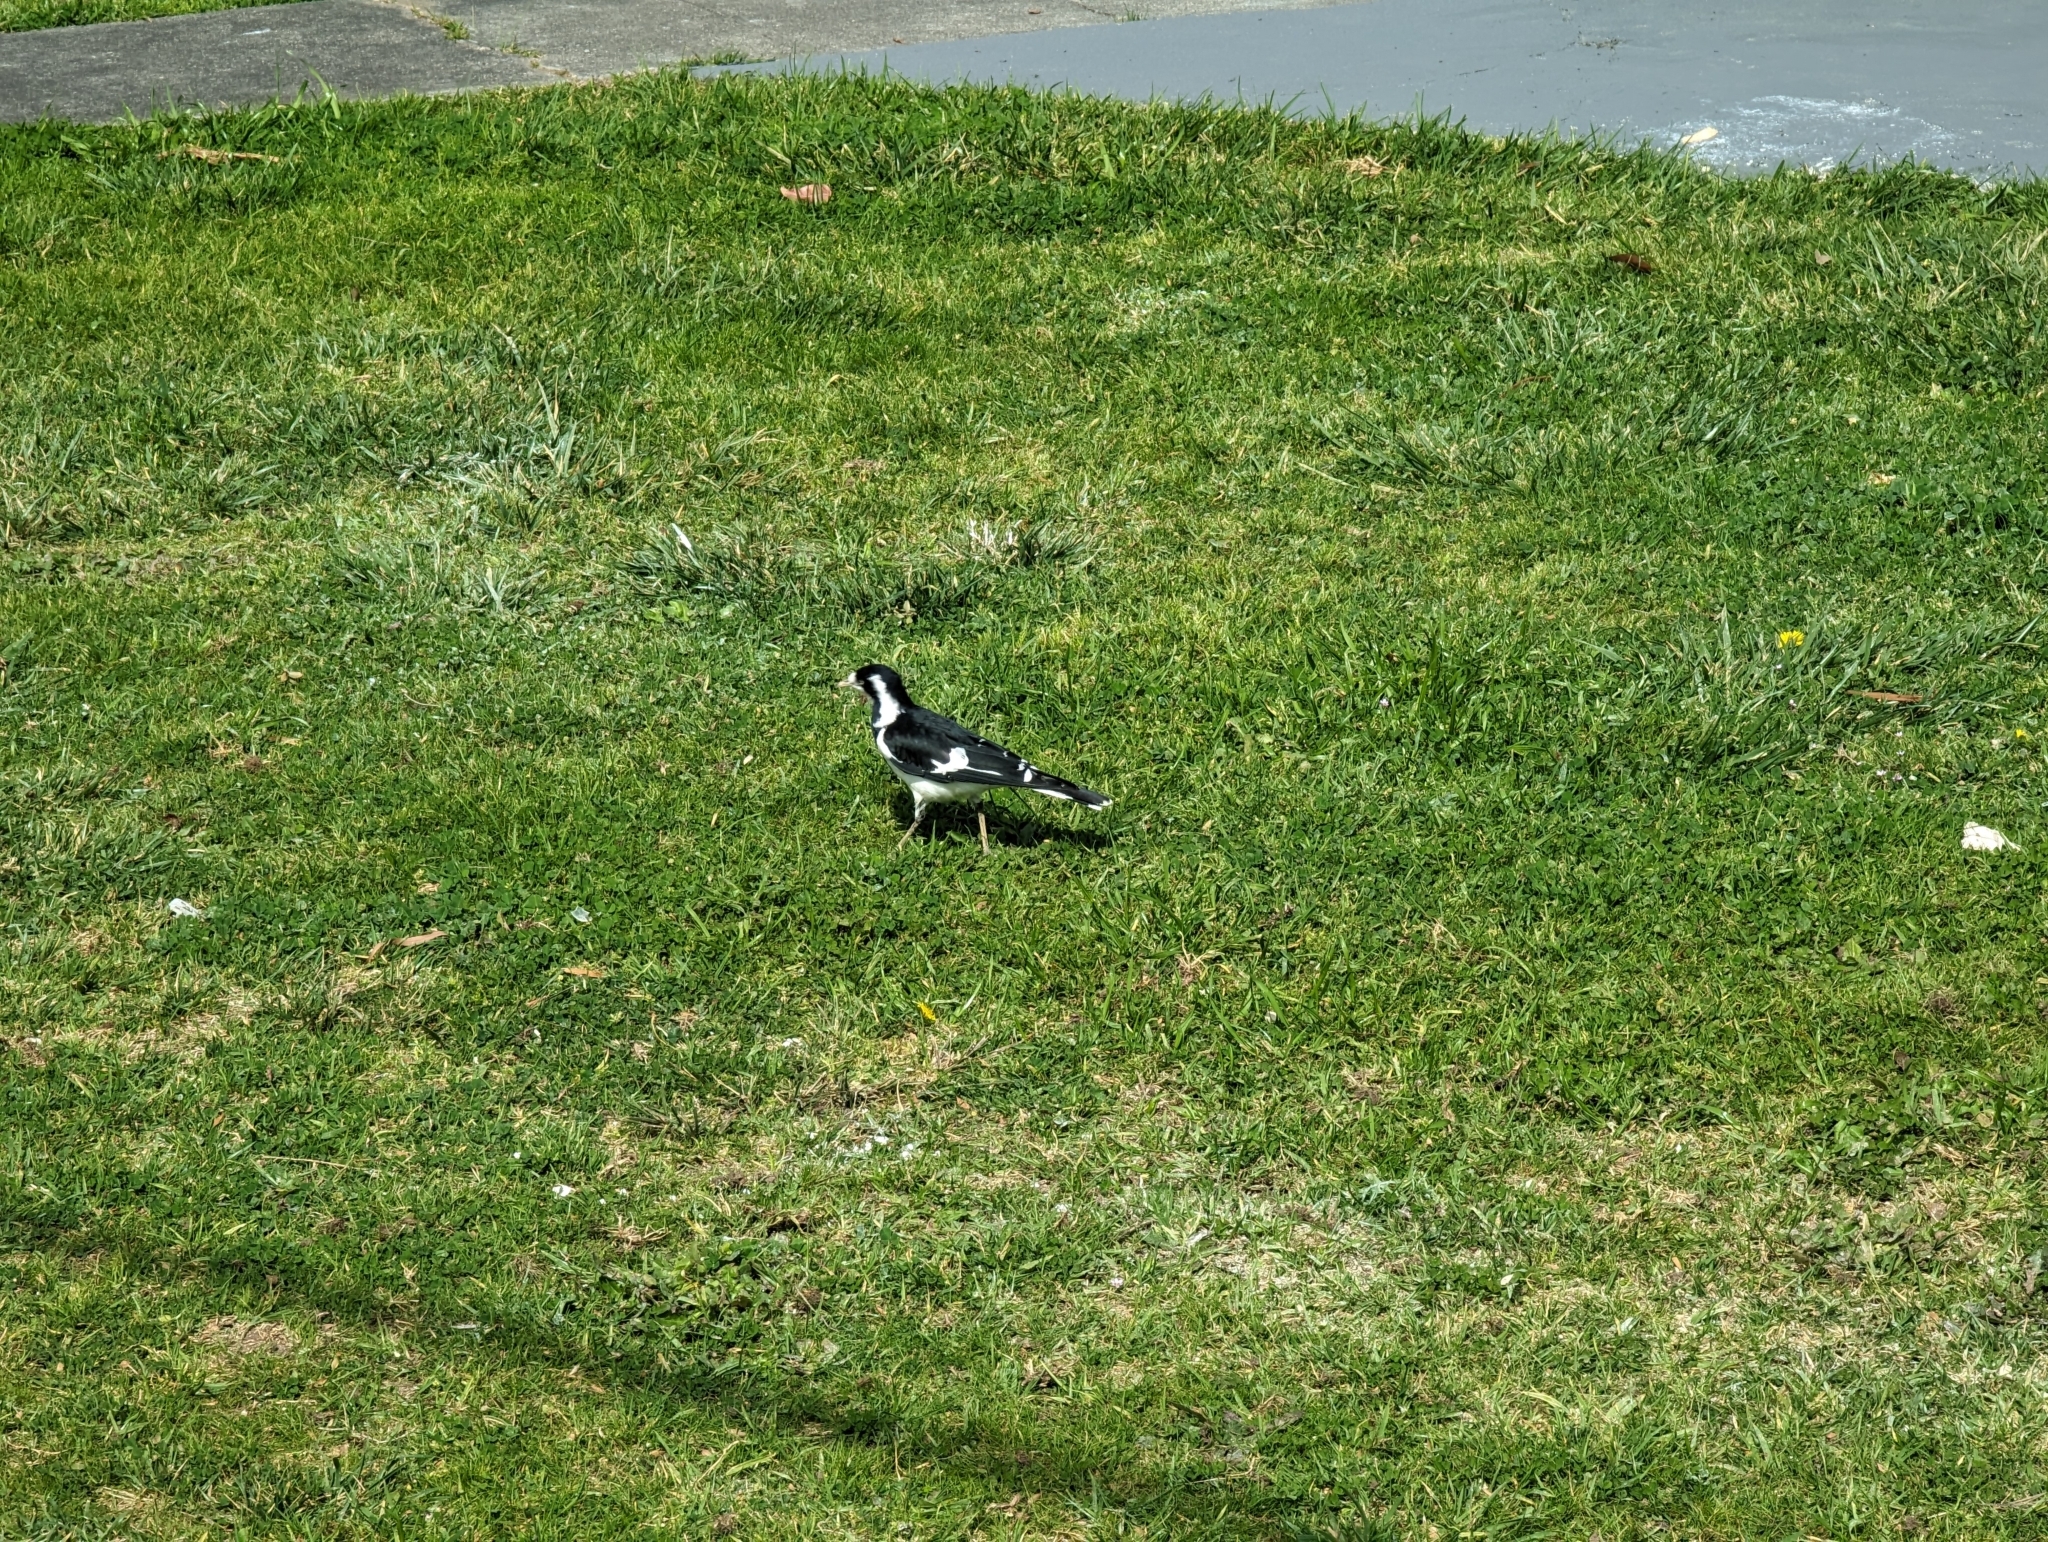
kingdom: Animalia
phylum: Chordata
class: Aves
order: Passeriformes
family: Monarchidae
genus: Grallina
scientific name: Grallina cyanoleuca
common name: Magpie-lark
